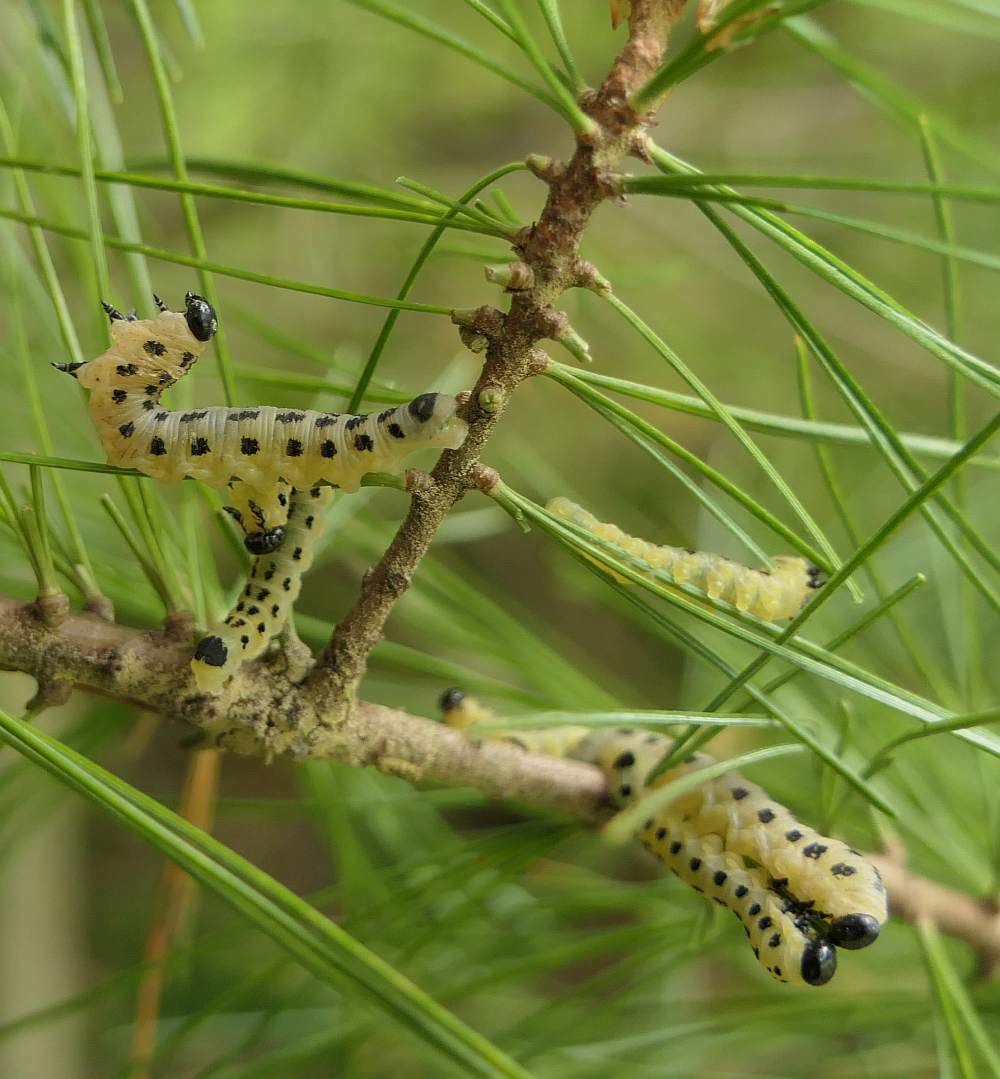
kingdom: Animalia
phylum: Arthropoda
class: Insecta
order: Hymenoptera
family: Diprionidae
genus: Neodiprion
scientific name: Neodiprion pinetum
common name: White pine sawfly
